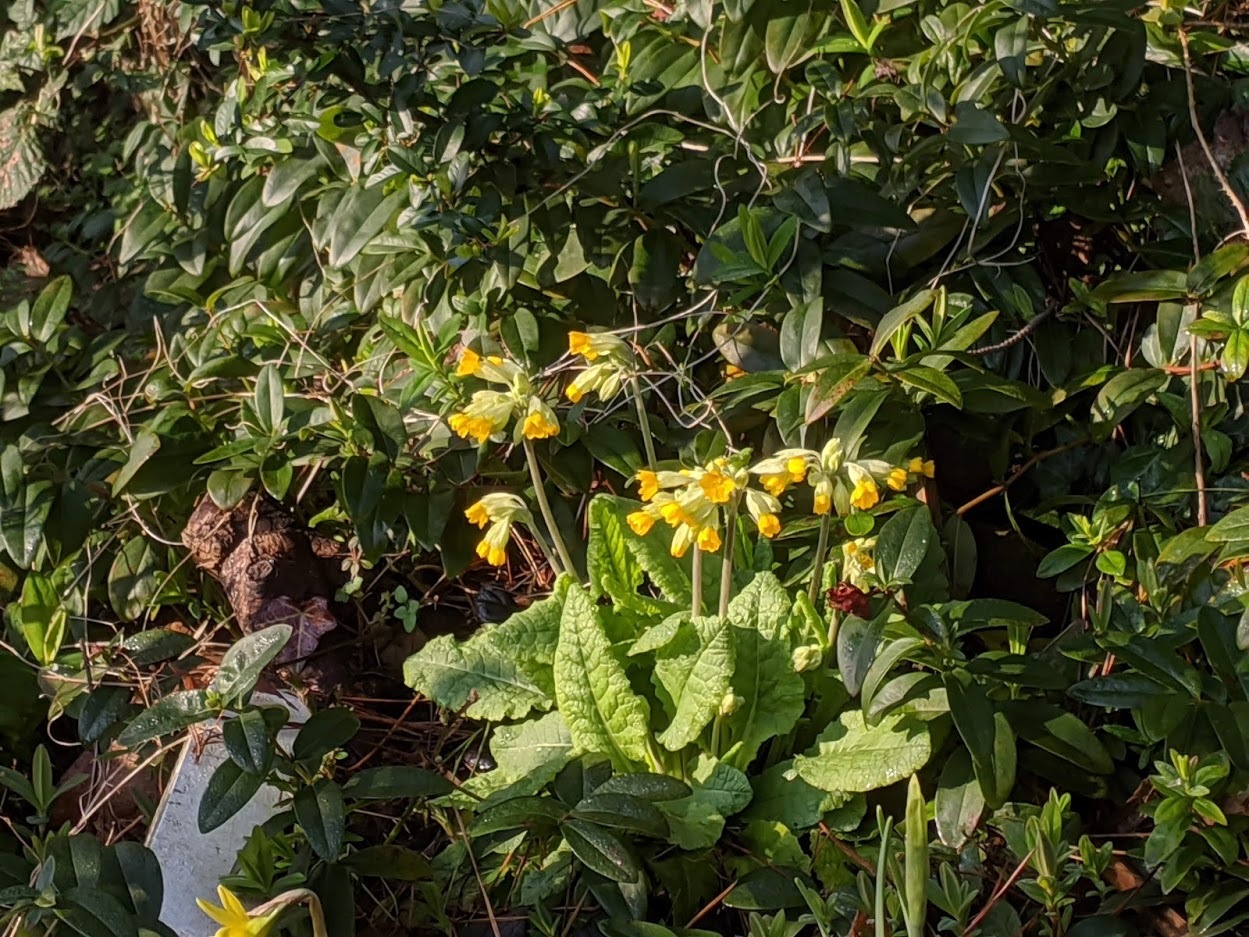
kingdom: Plantae
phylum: Tracheophyta
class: Magnoliopsida
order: Ericales
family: Primulaceae
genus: Primula
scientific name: Primula veris
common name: Cowslip
